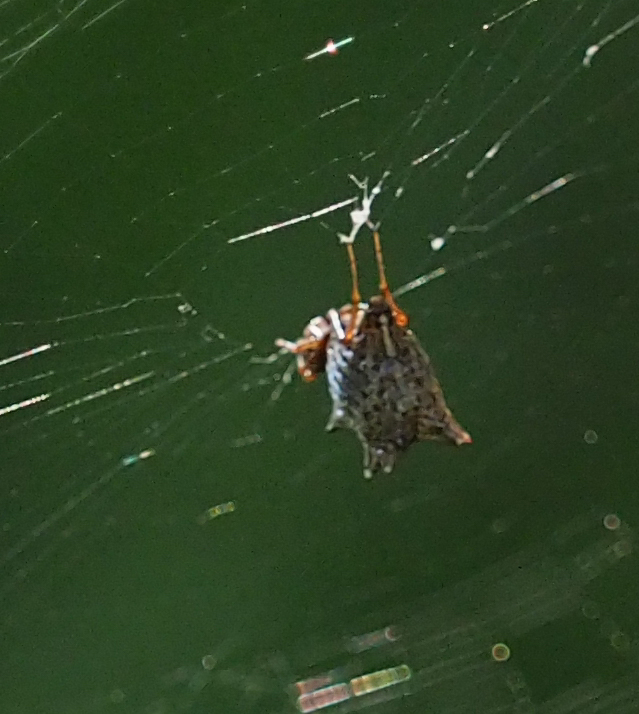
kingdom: Animalia
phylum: Arthropoda
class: Arachnida
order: Araneae
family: Araneidae
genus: Micrathena
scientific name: Micrathena gracilis
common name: Orb weavers
